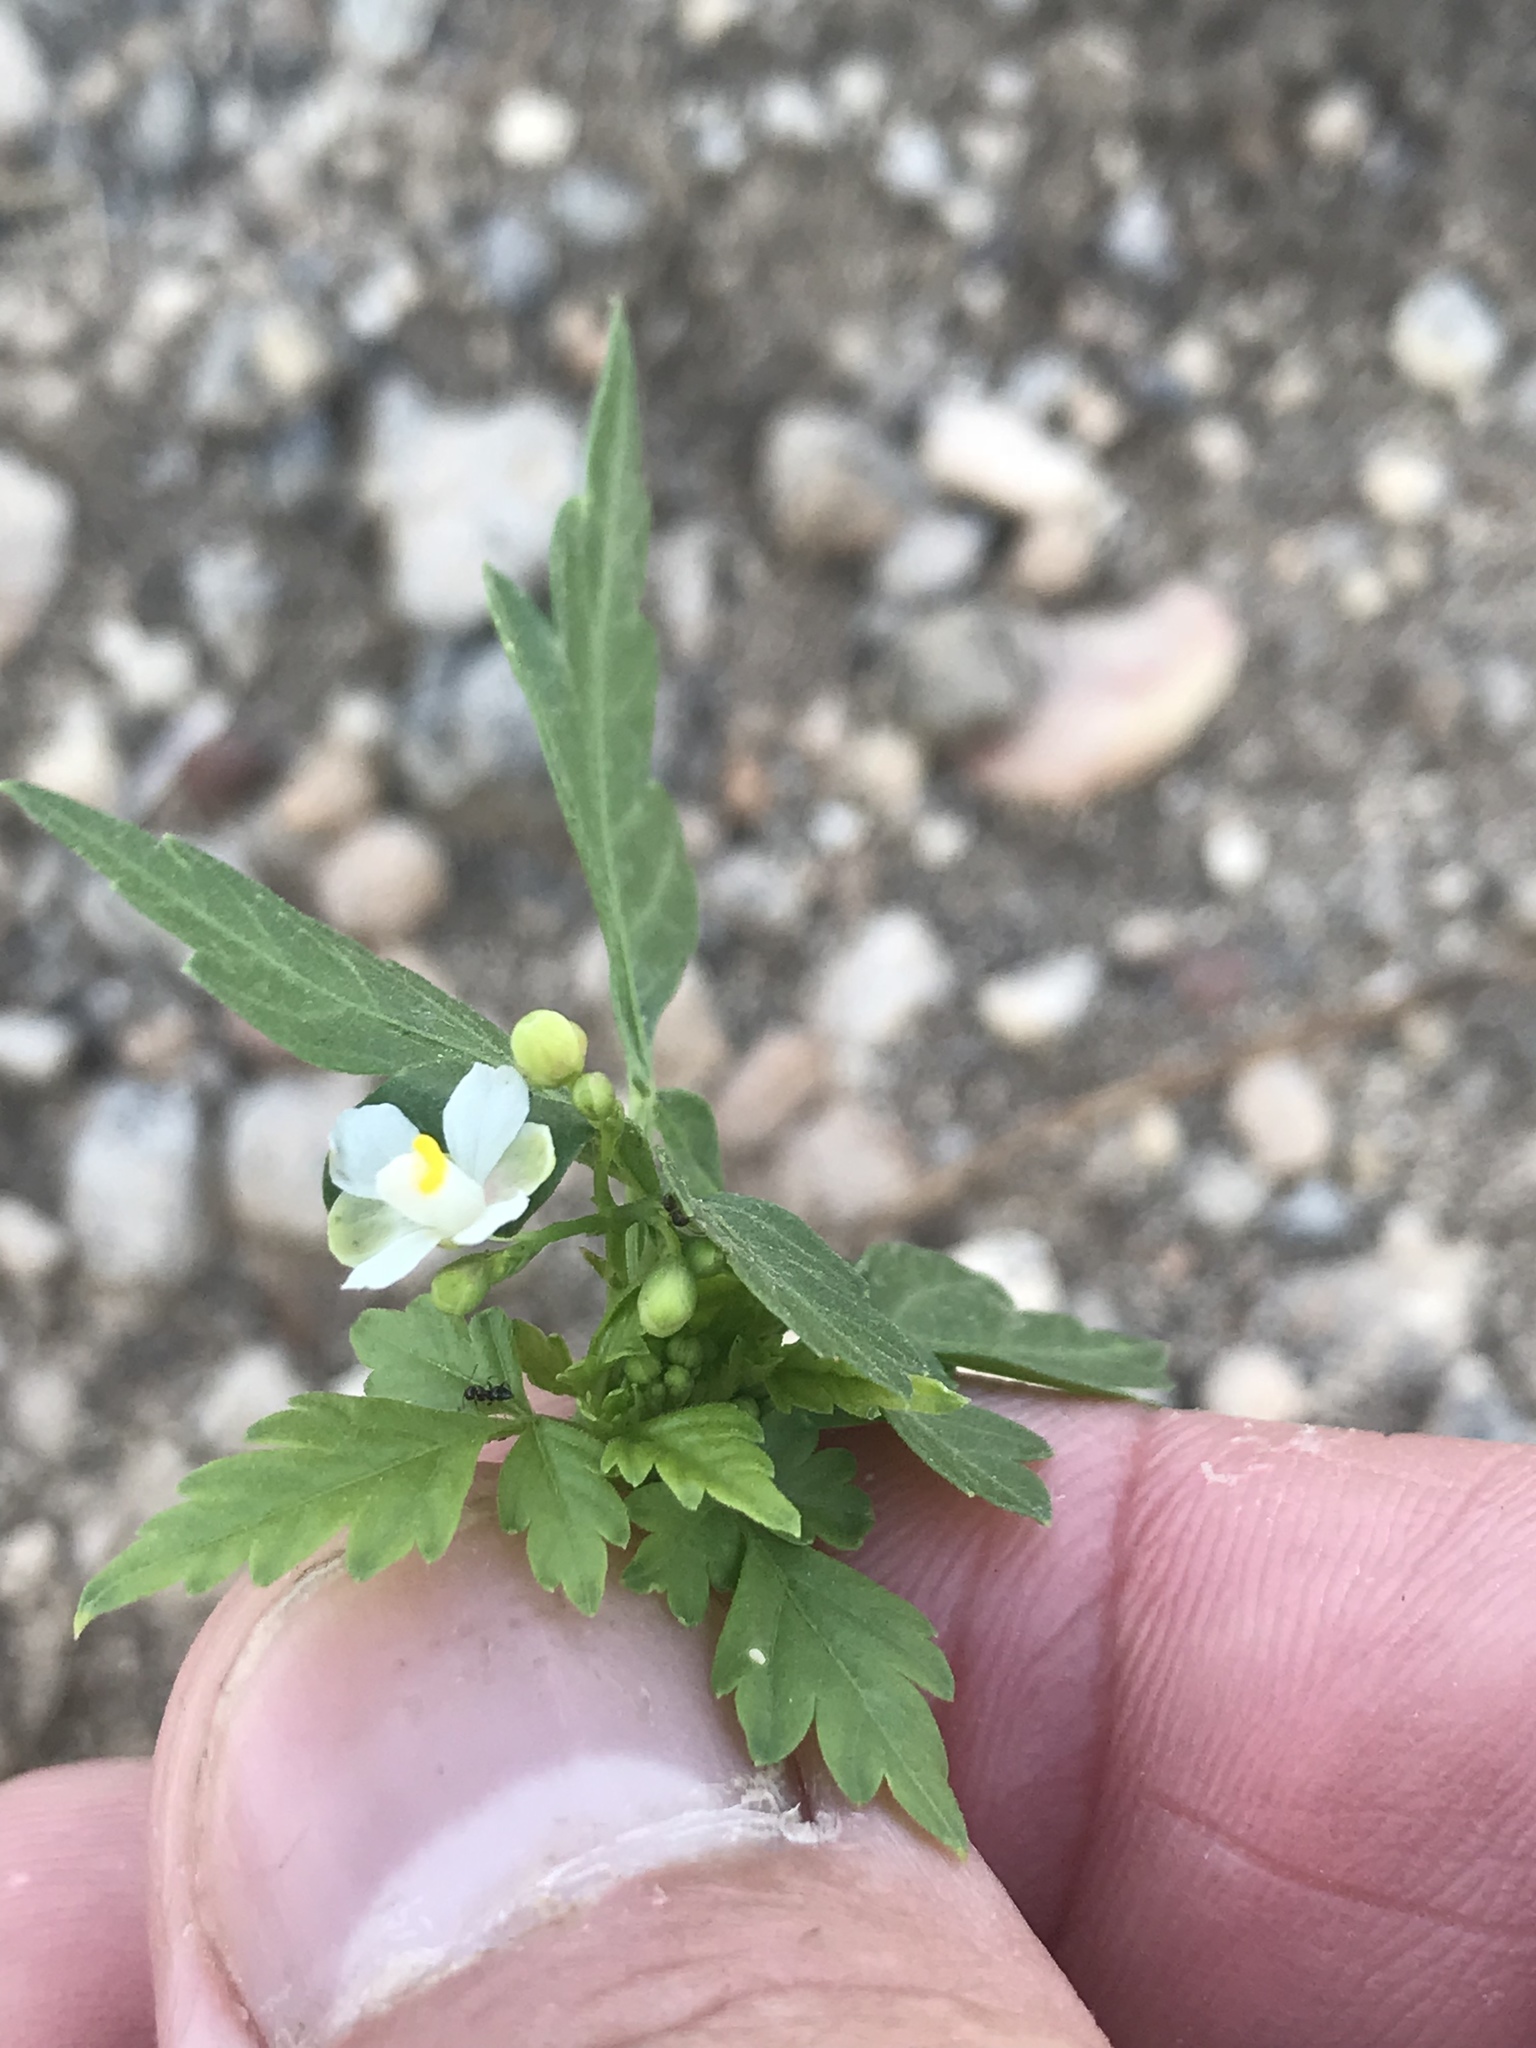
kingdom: Plantae
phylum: Tracheophyta
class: Magnoliopsida
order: Sapindales
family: Sapindaceae
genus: Cardiospermum
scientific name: Cardiospermum halicacabum
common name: Balloon vine
